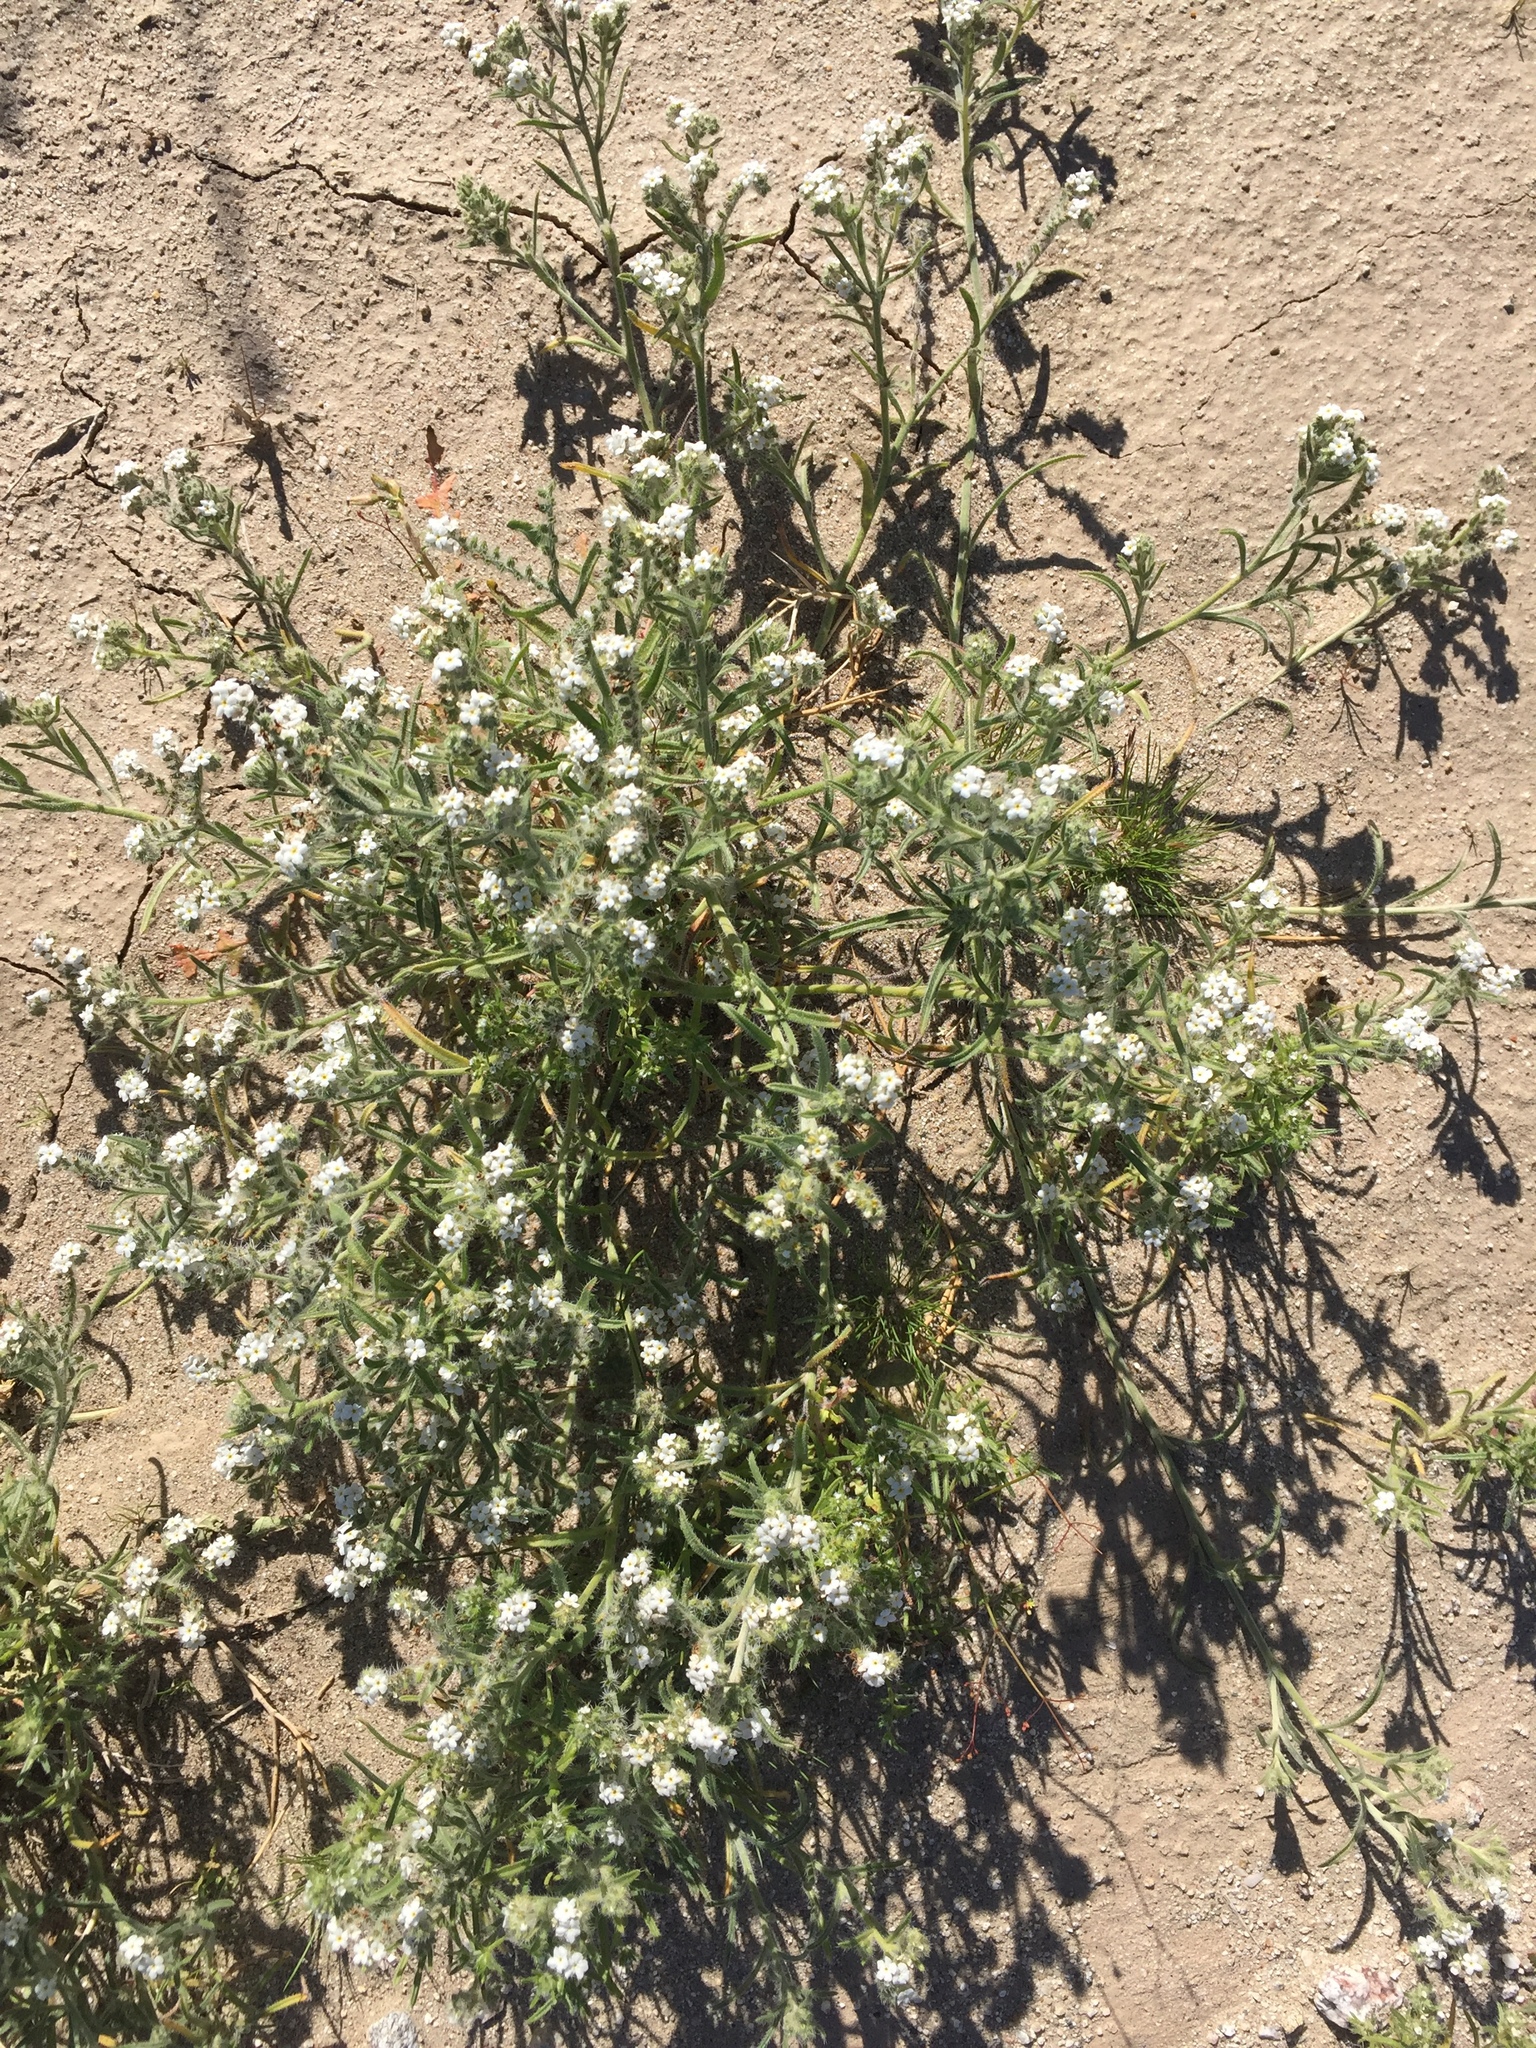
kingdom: Plantae
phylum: Tracheophyta
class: Magnoliopsida
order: Boraginales
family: Boraginaceae
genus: Johnstonella
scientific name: Johnstonella angustifolia
